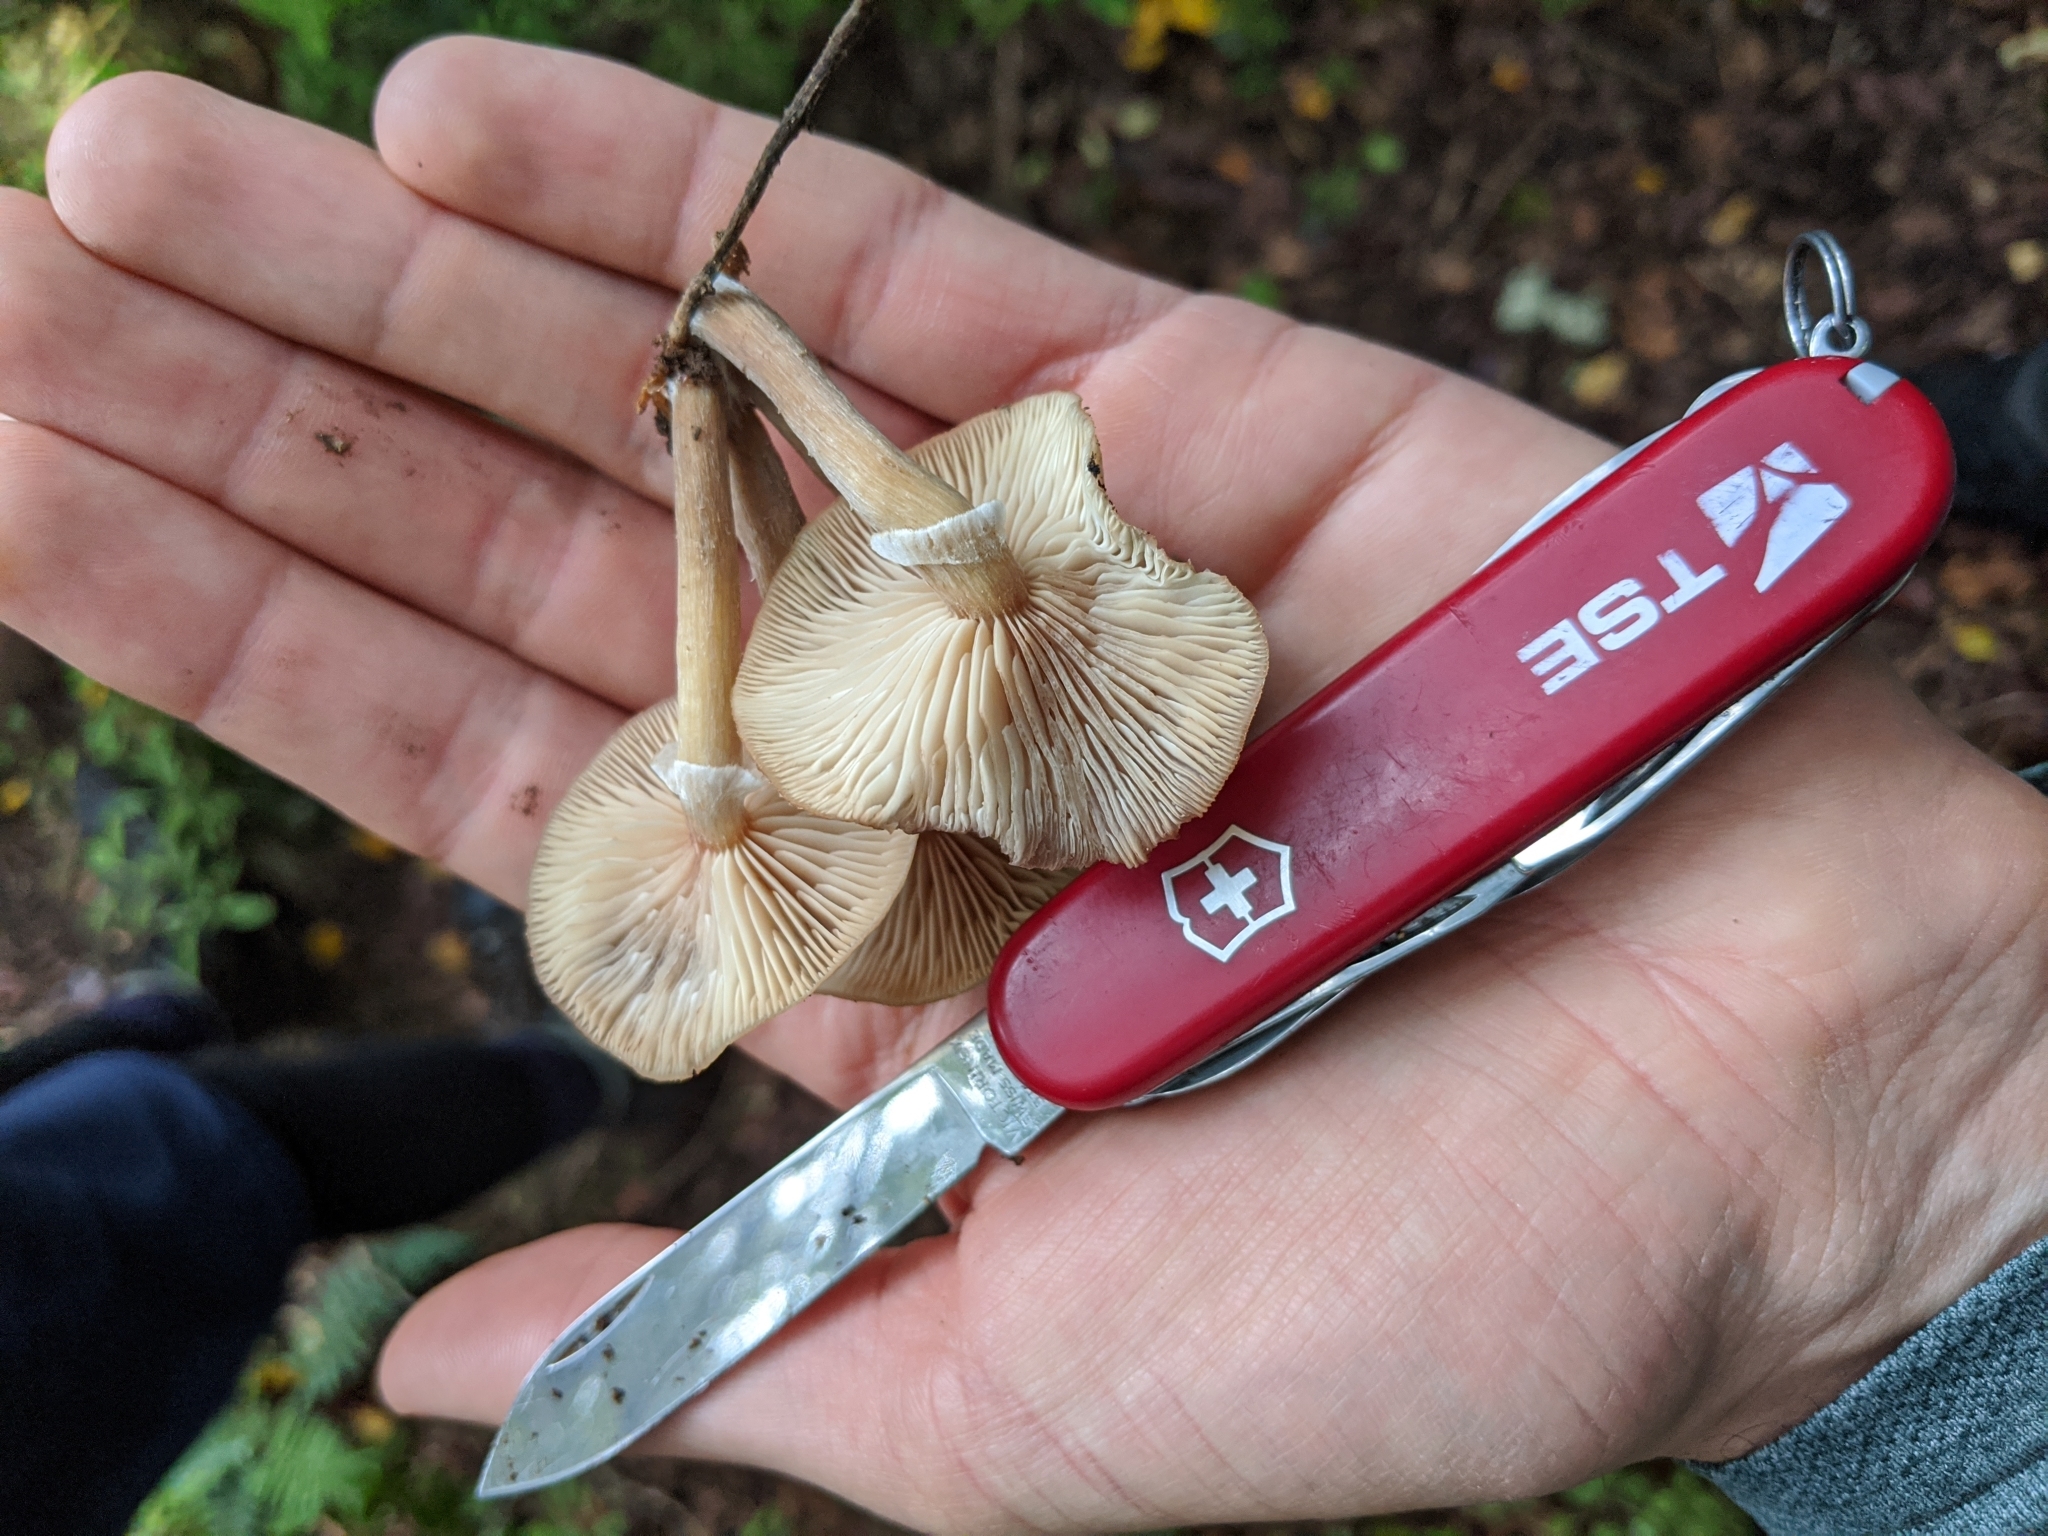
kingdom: Fungi
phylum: Basidiomycota
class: Agaricomycetes
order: Agaricales
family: Physalacriaceae
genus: Armillaria
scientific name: Armillaria novae-zelandiae
